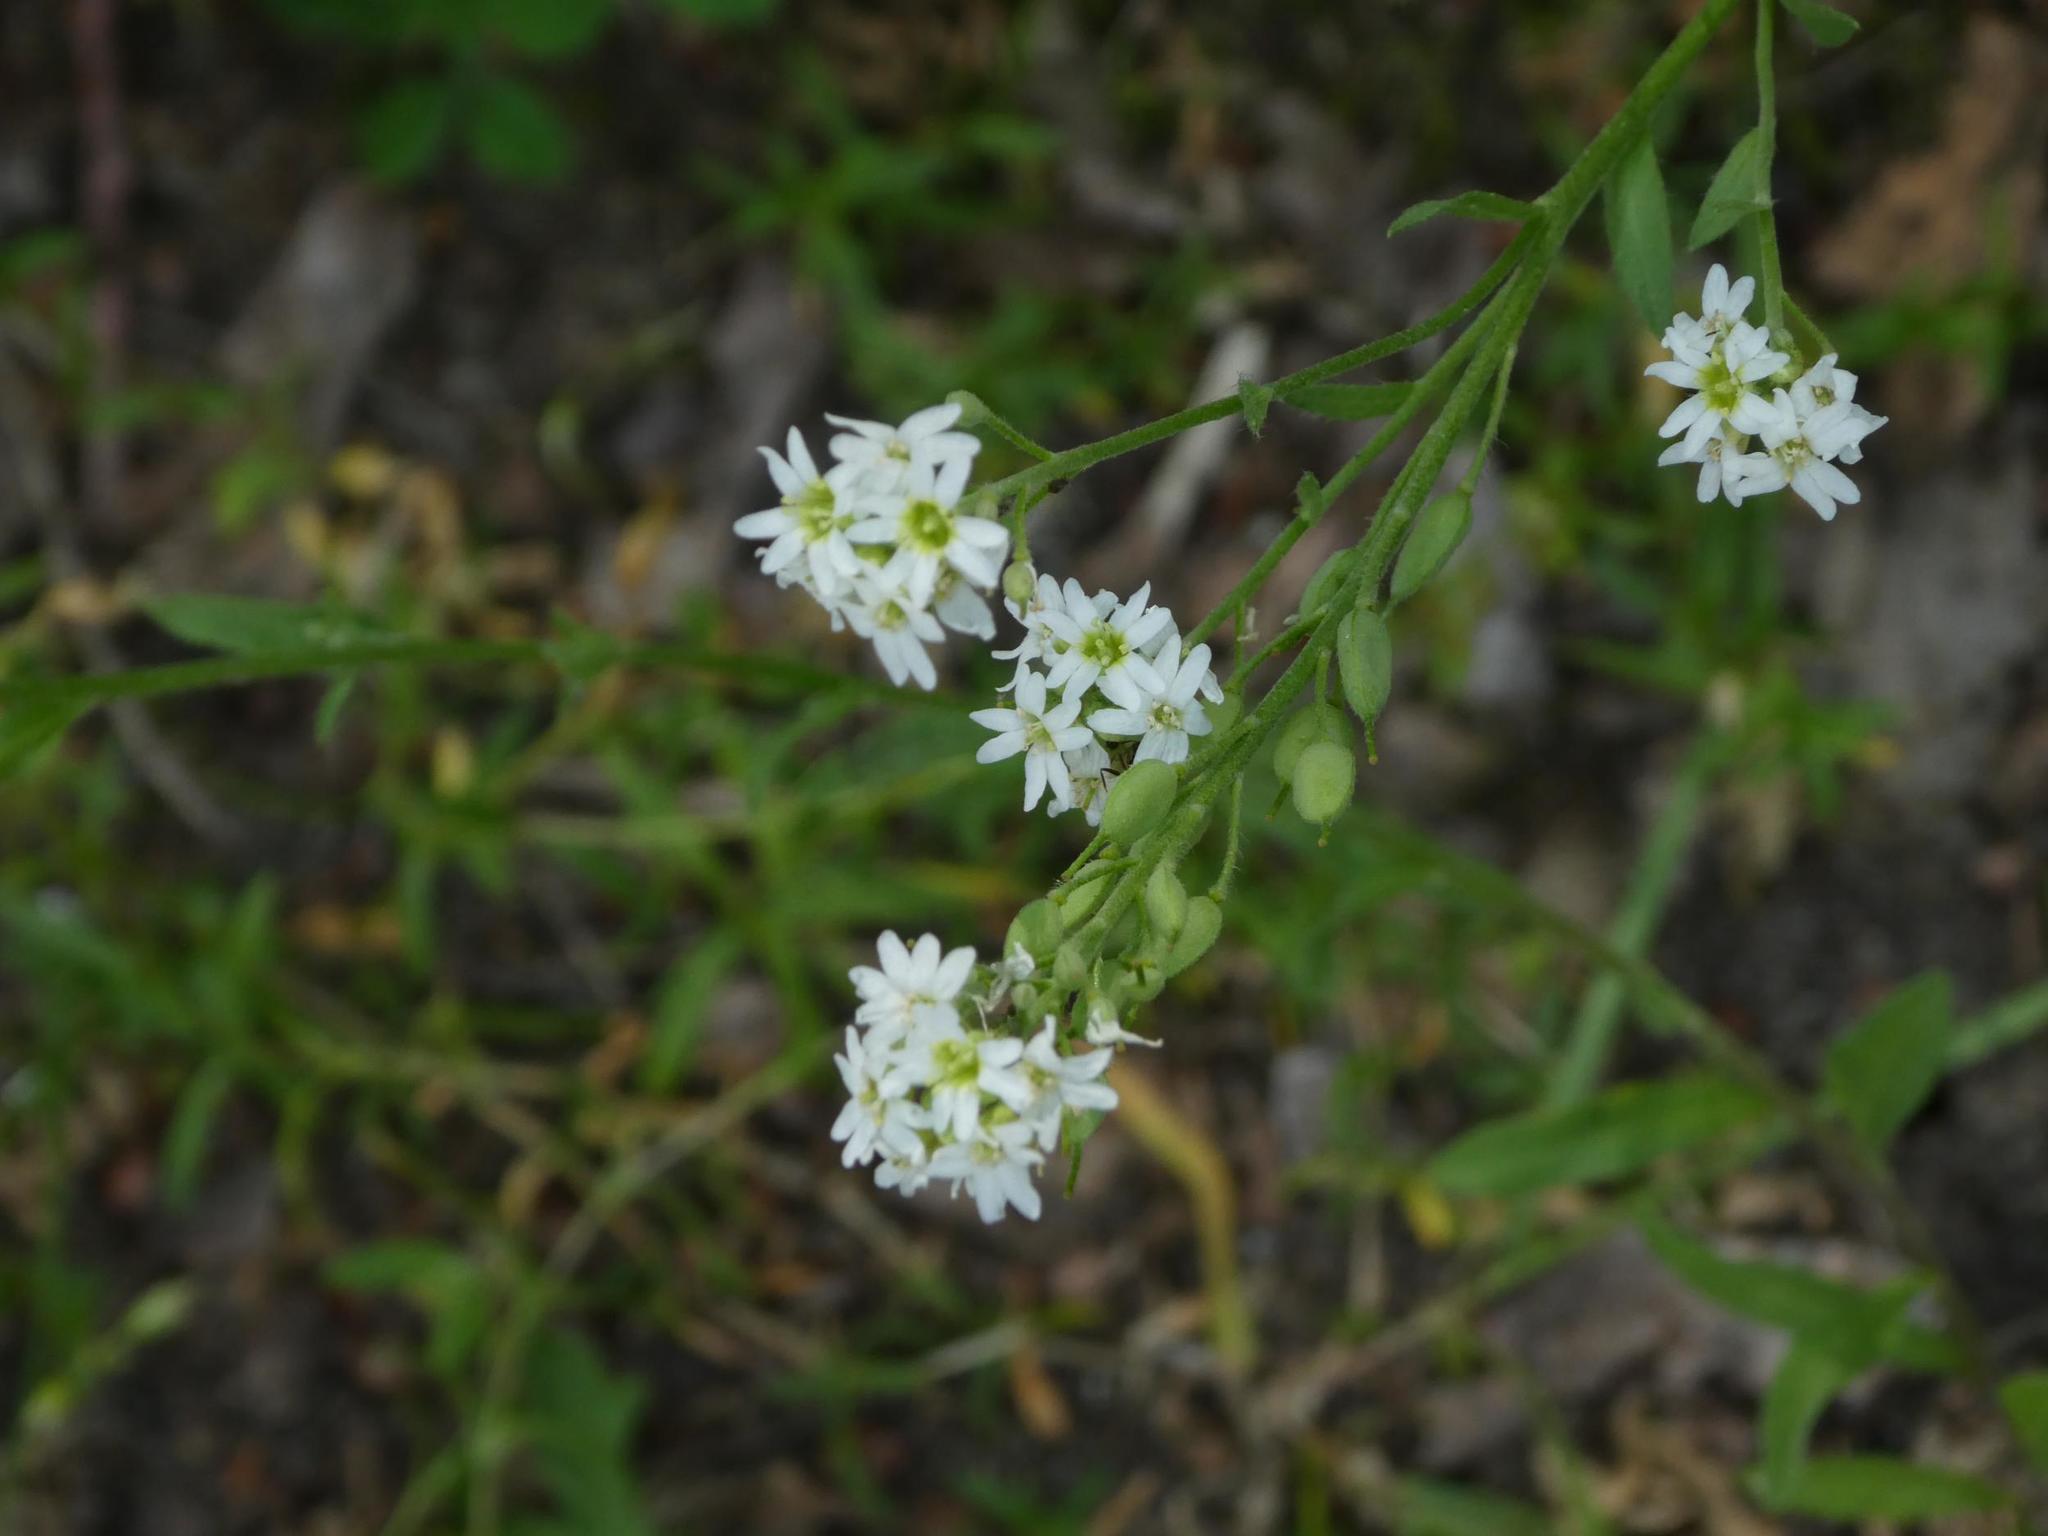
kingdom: Plantae
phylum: Tracheophyta
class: Magnoliopsida
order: Brassicales
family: Brassicaceae
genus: Berteroa
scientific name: Berteroa incana
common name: Hoary alison
